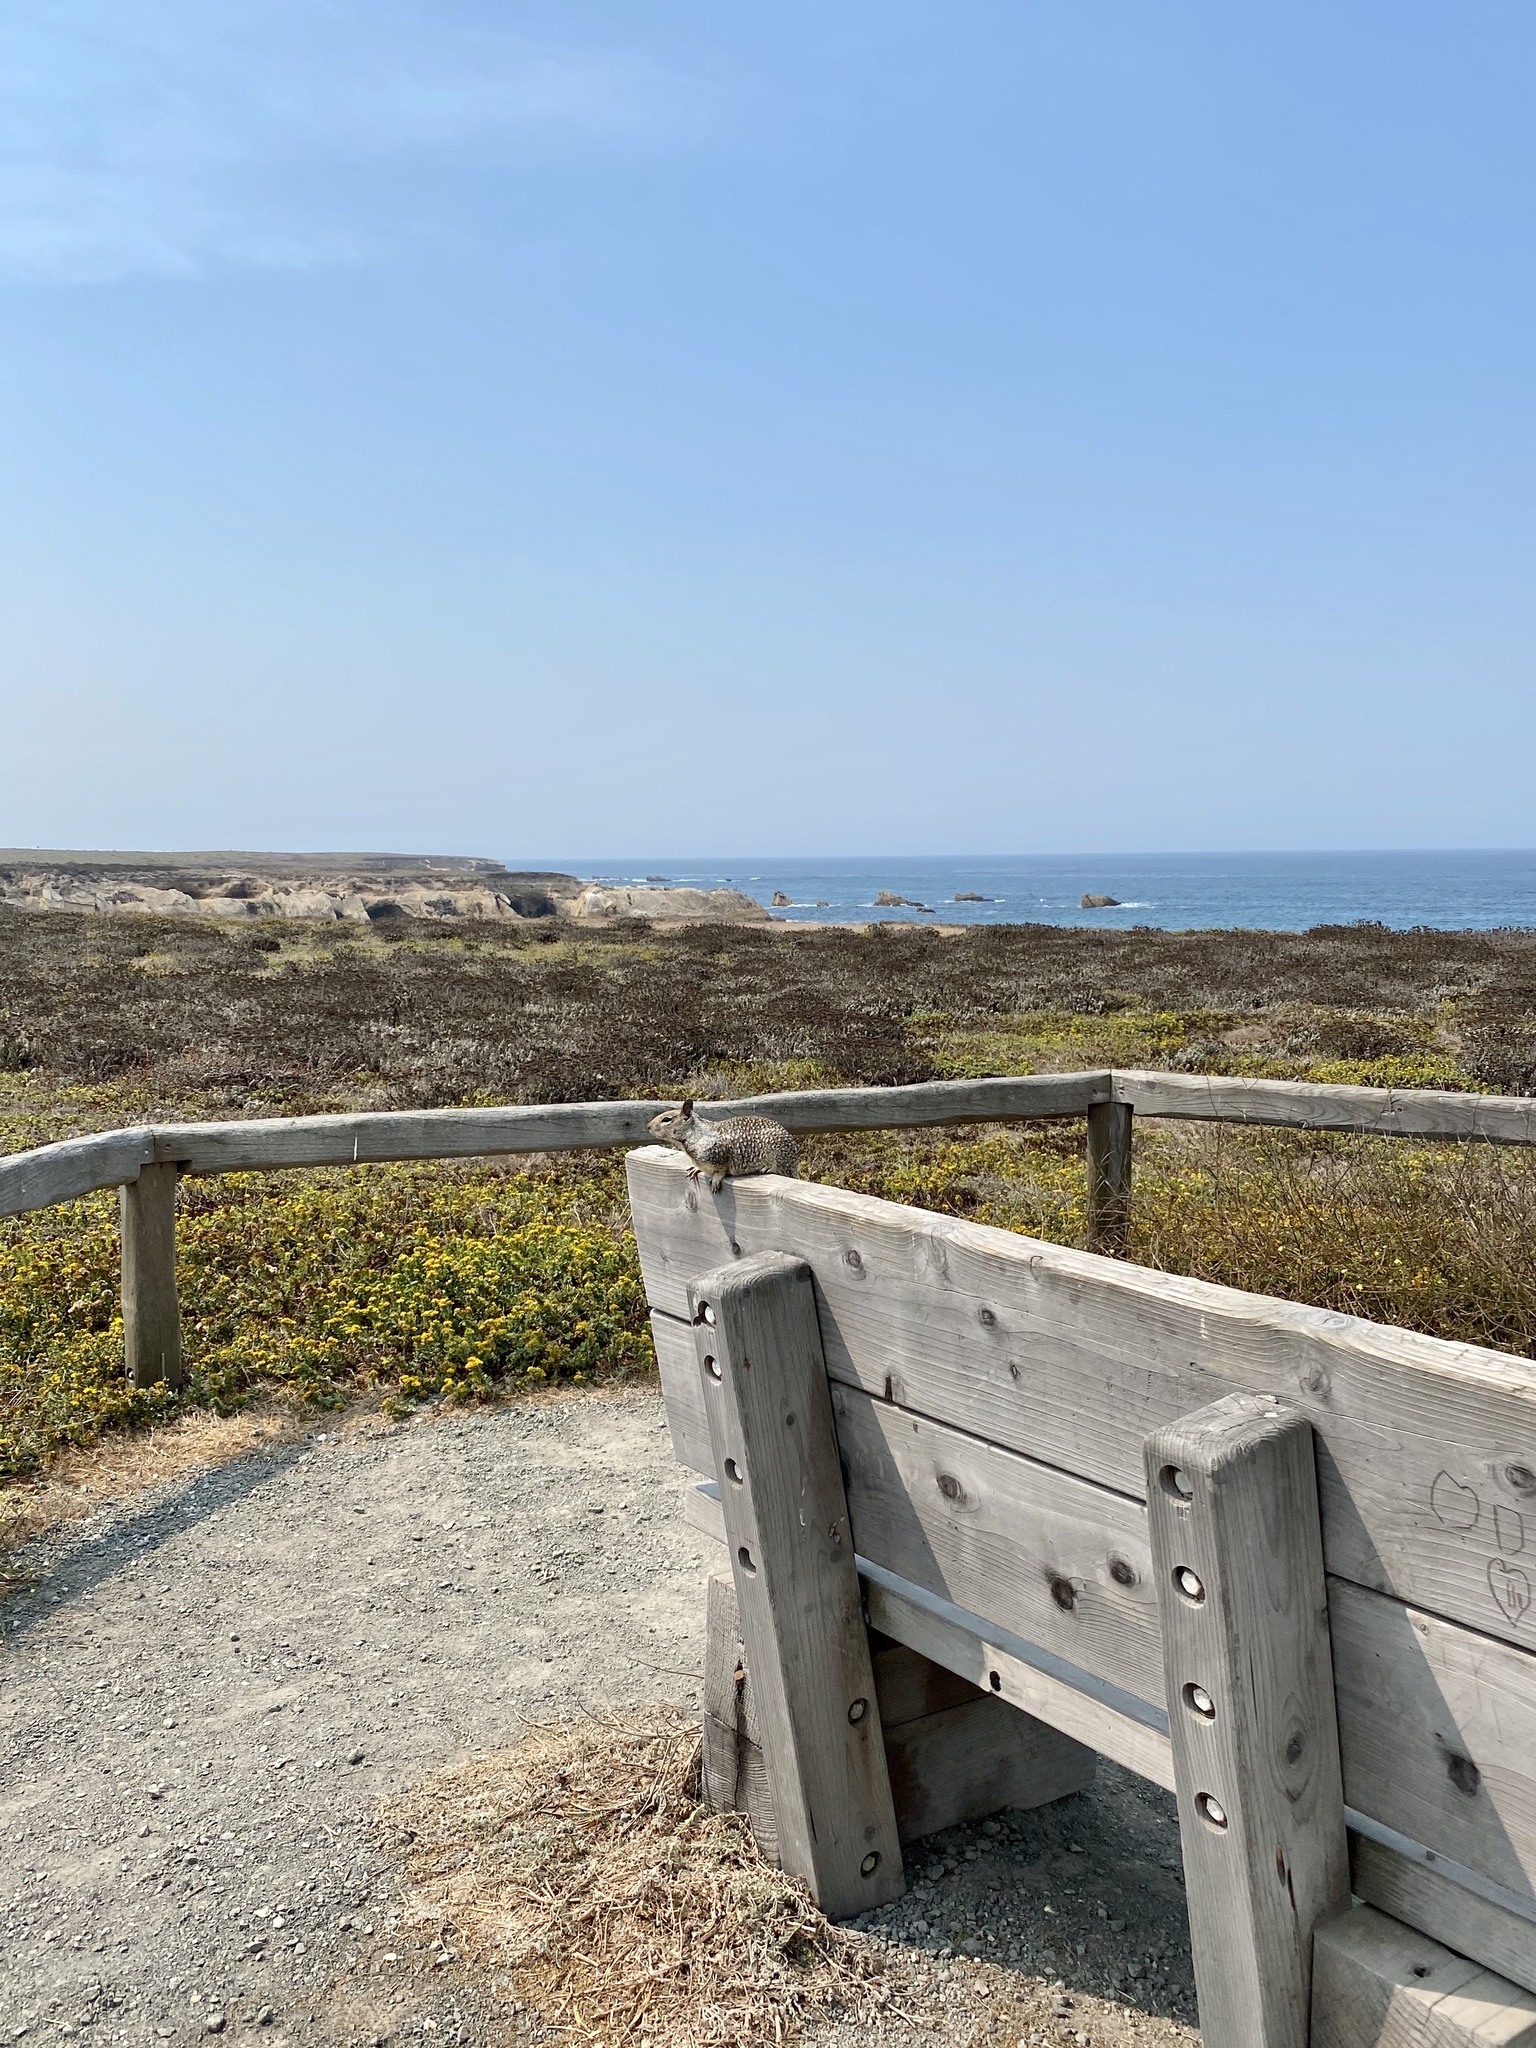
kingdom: Animalia
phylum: Chordata
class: Mammalia
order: Rodentia
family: Sciuridae
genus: Otospermophilus
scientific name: Otospermophilus beecheyi
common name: California ground squirrel
